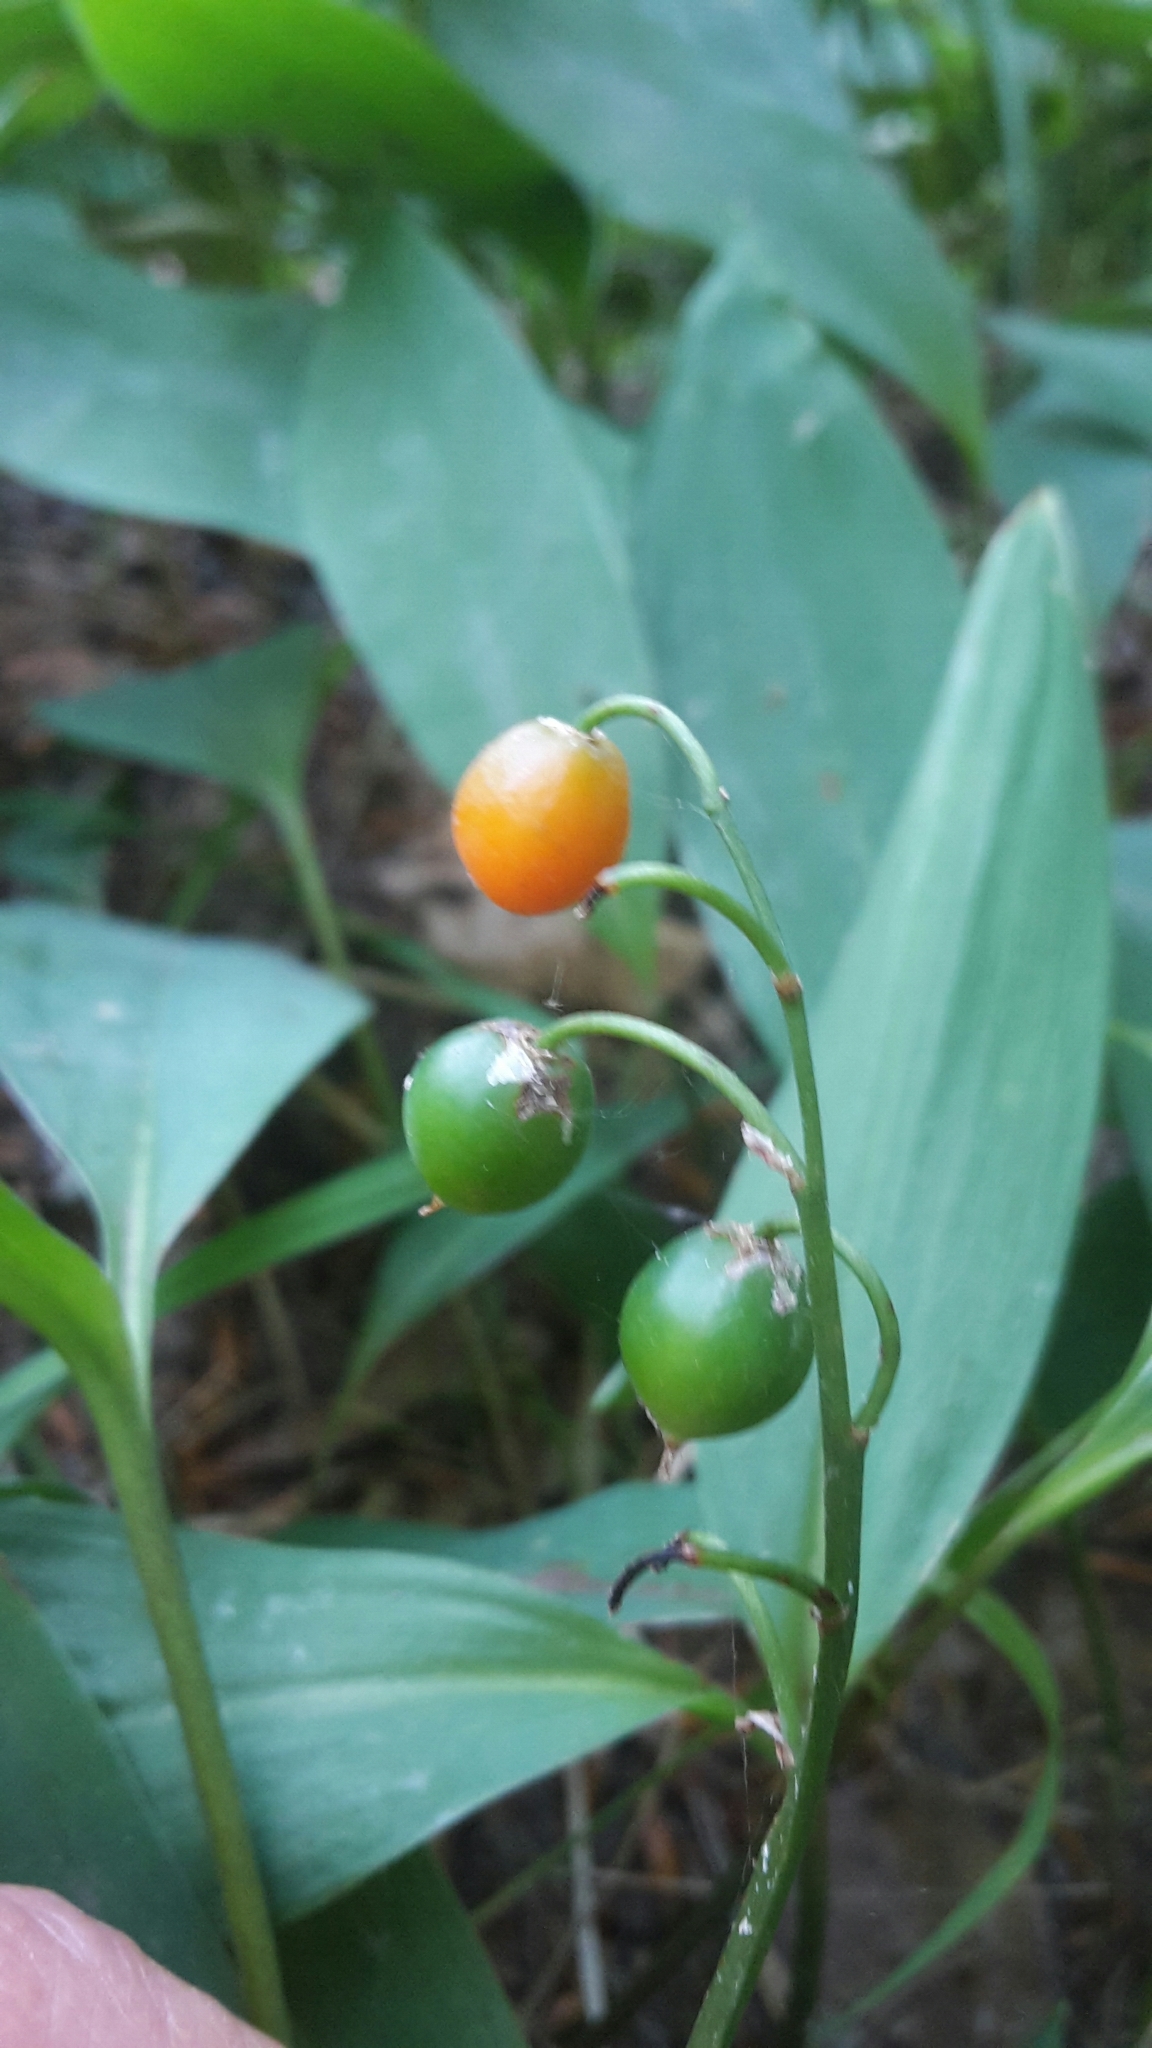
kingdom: Plantae
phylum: Tracheophyta
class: Liliopsida
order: Asparagales
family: Asparagaceae
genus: Convallaria
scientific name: Convallaria majalis
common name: Lily-of-the-valley
